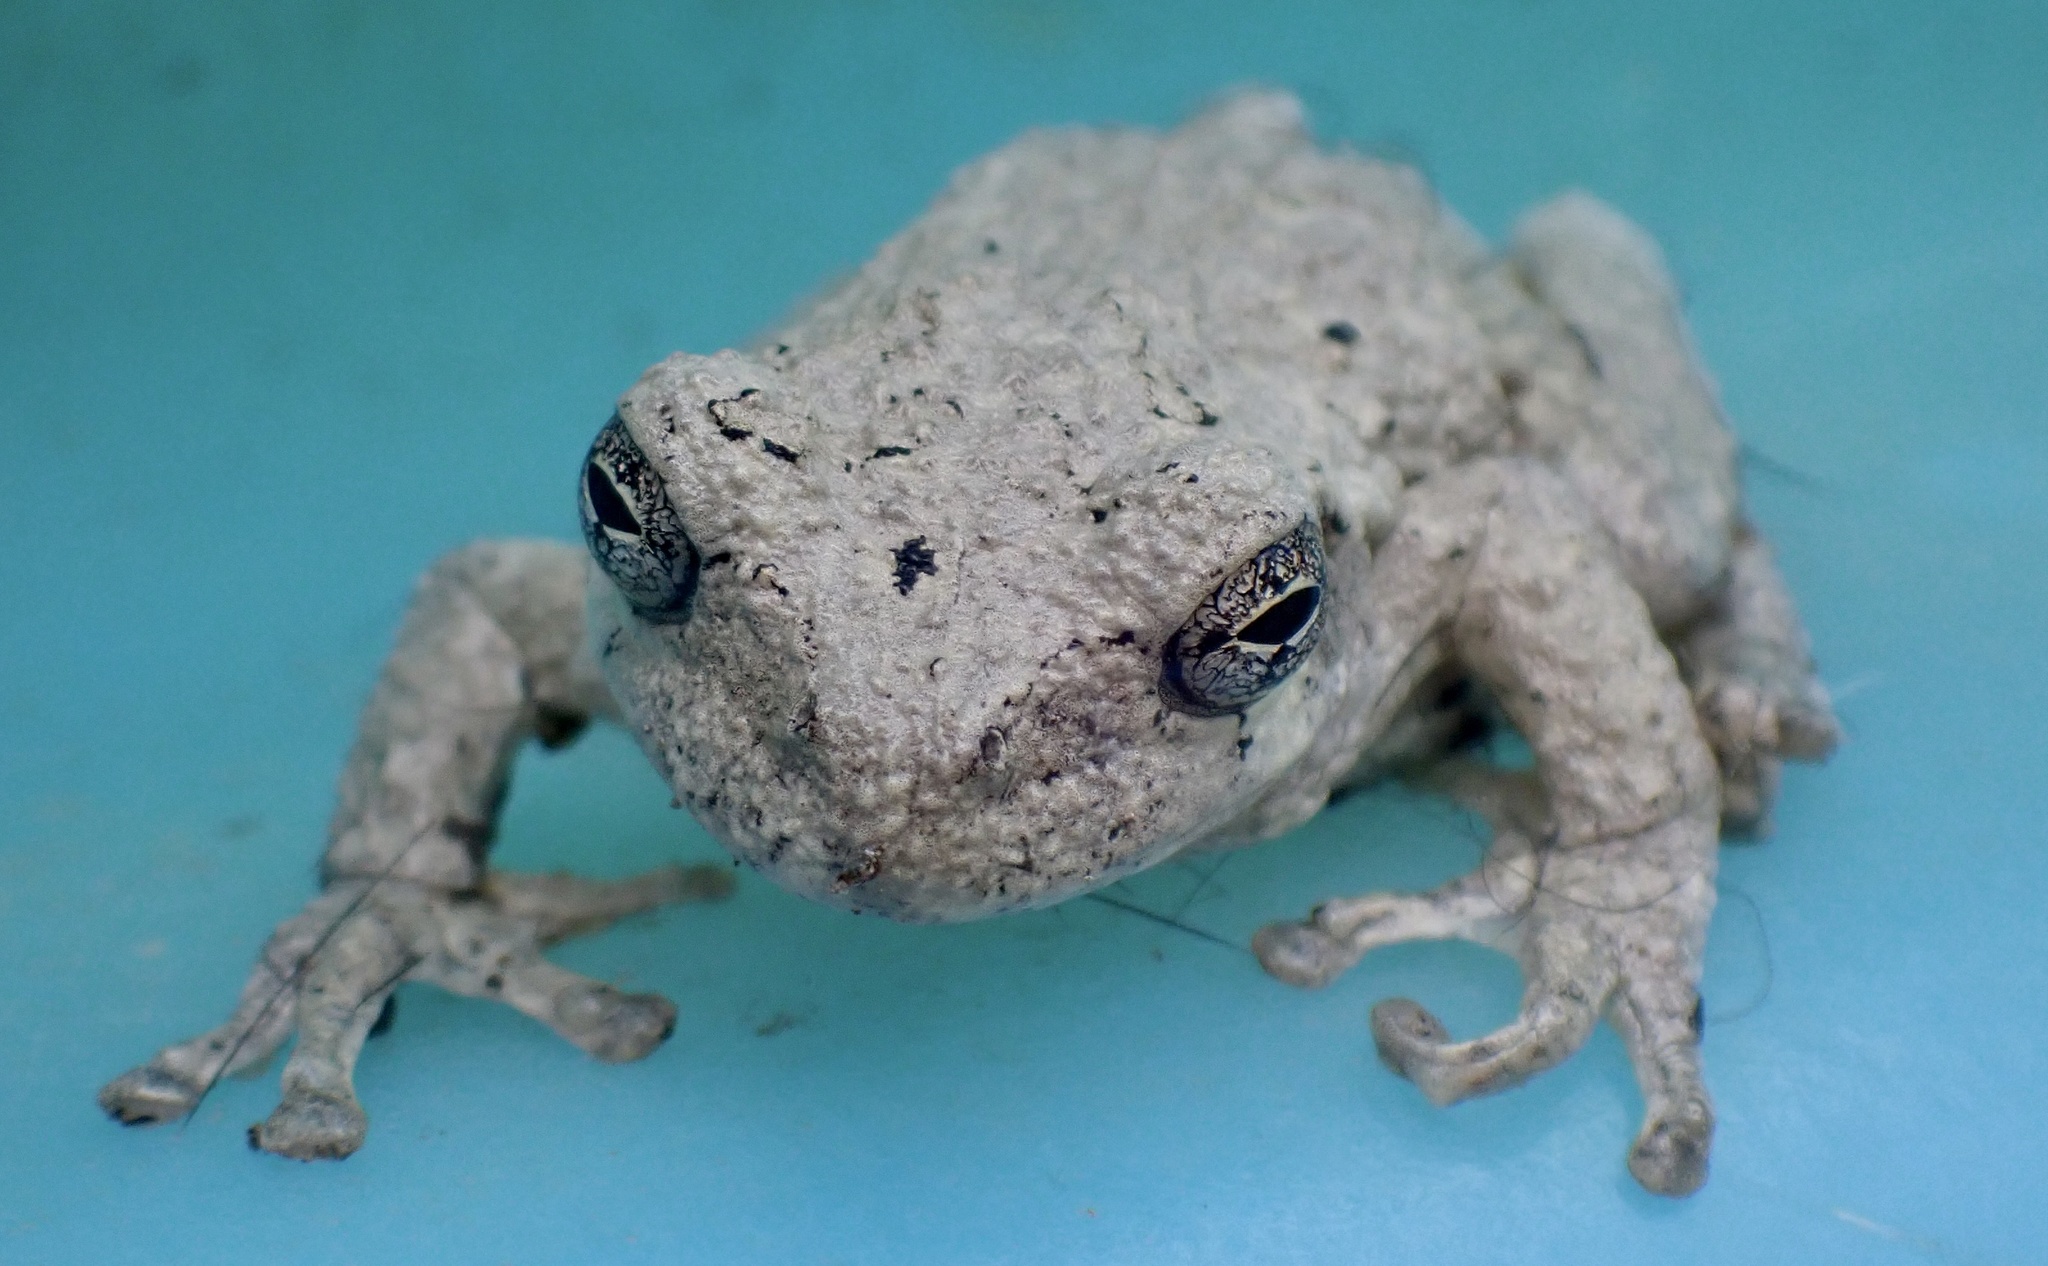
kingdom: Animalia
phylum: Chordata
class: Amphibia
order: Anura
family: Hylidae
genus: Dryophytes
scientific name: Dryophytes chrysoscelis
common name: Cope's gray treefrog
